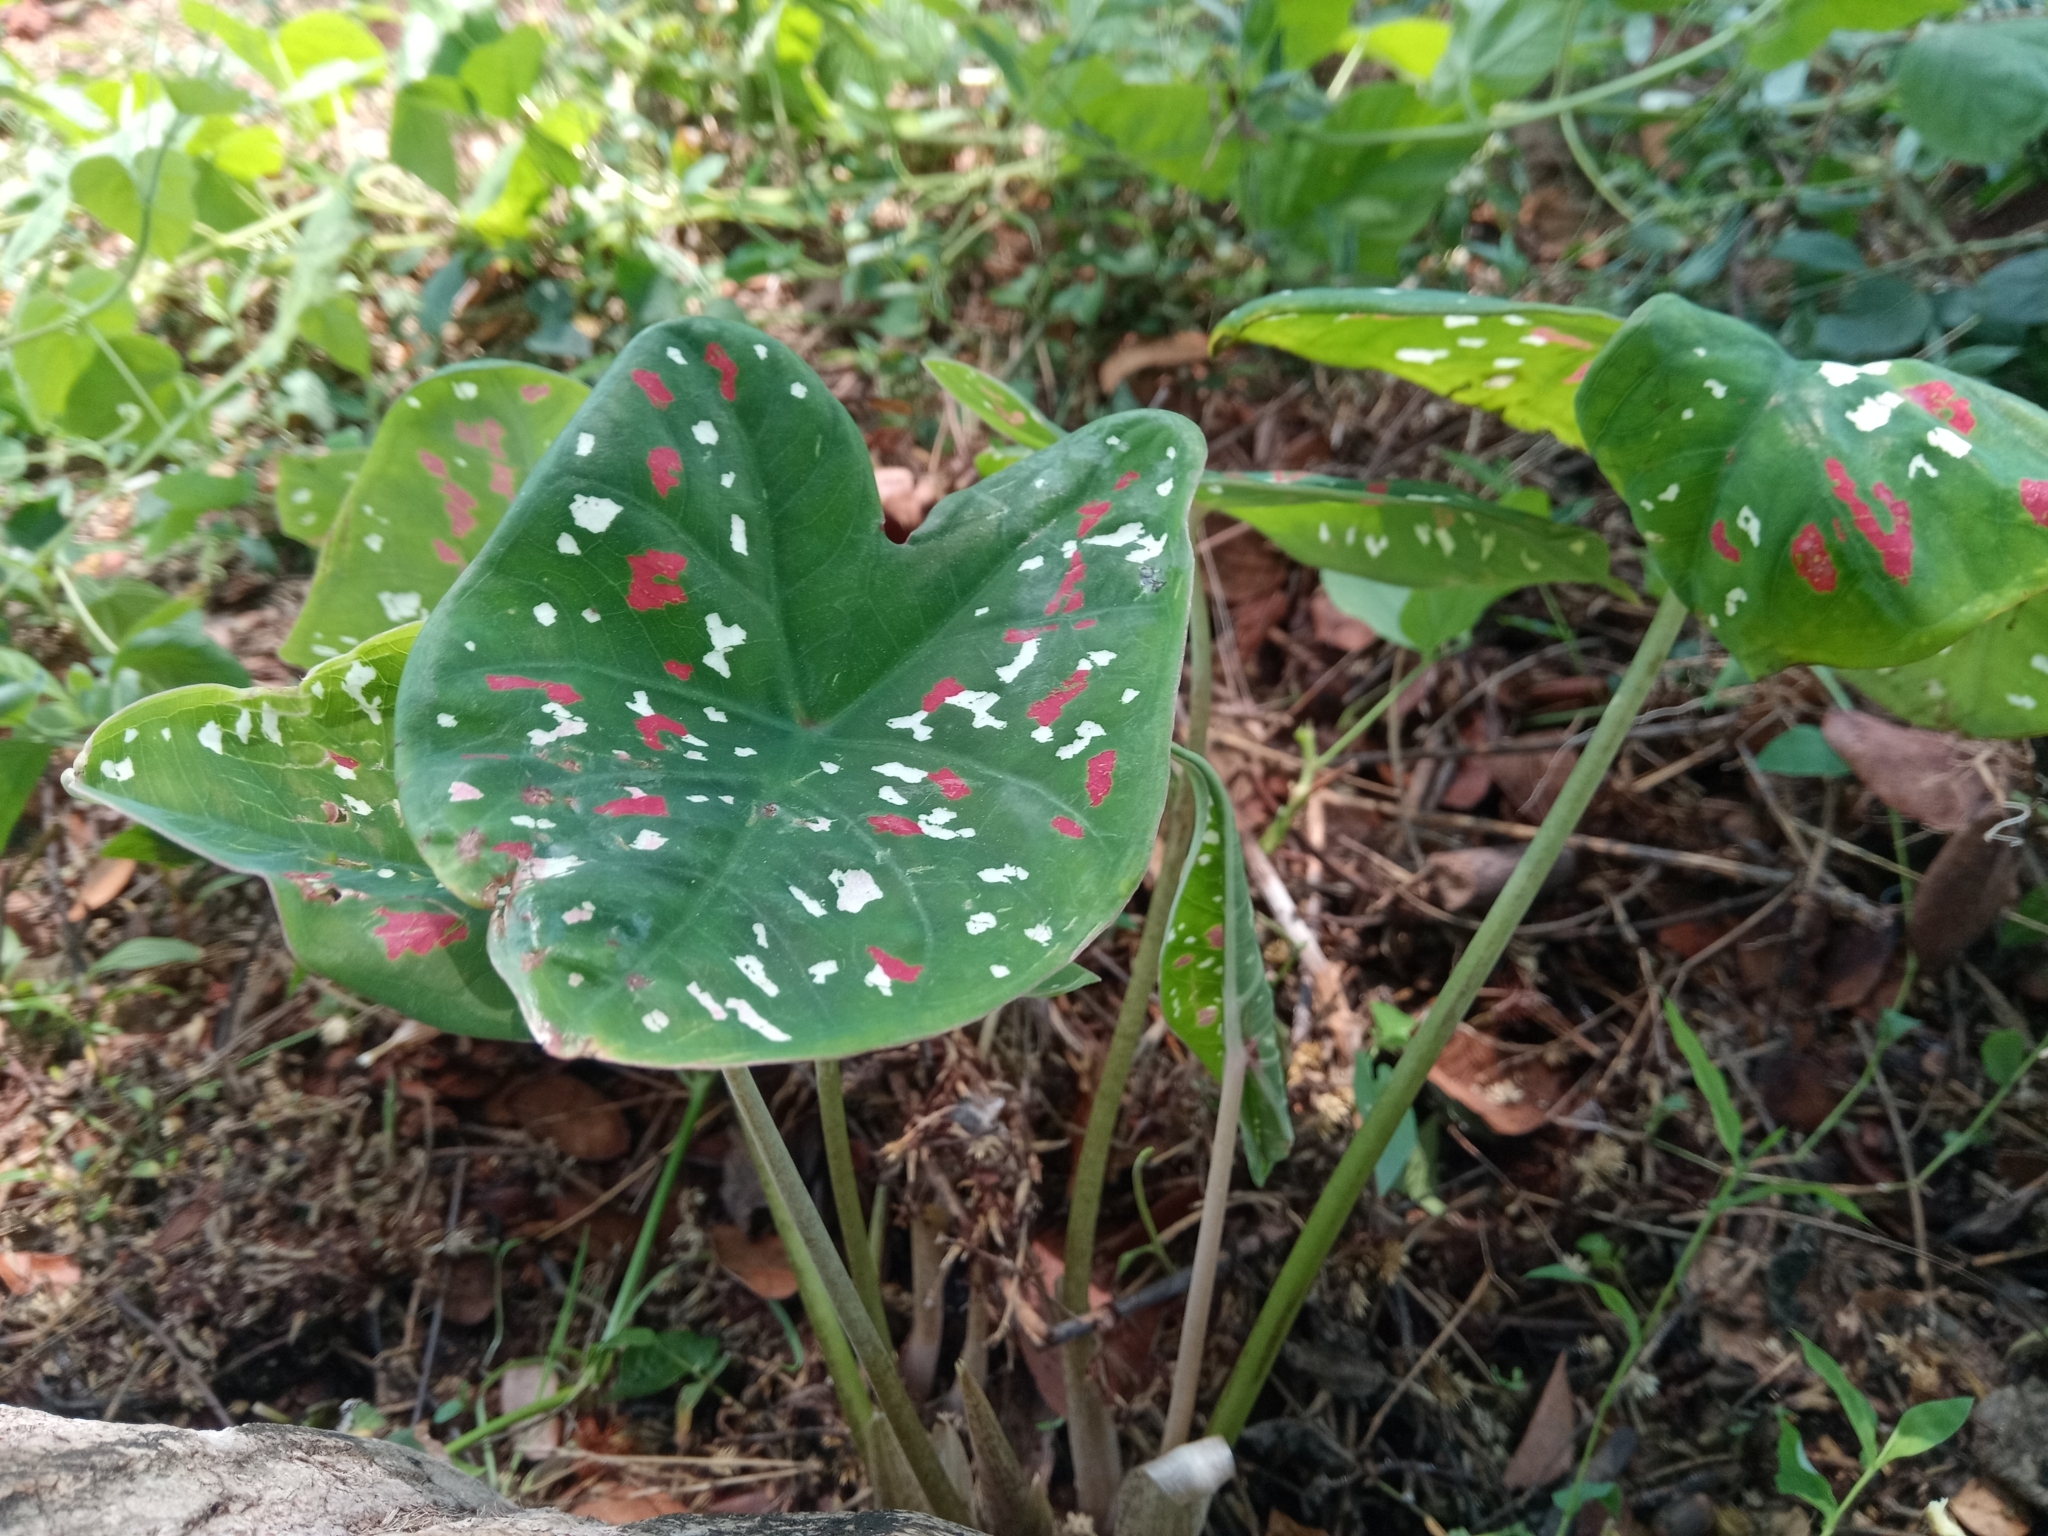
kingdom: Plantae
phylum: Tracheophyta
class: Liliopsida
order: Alismatales
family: Araceae
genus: Caladium
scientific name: Caladium bicolor
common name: Artist's pallet
